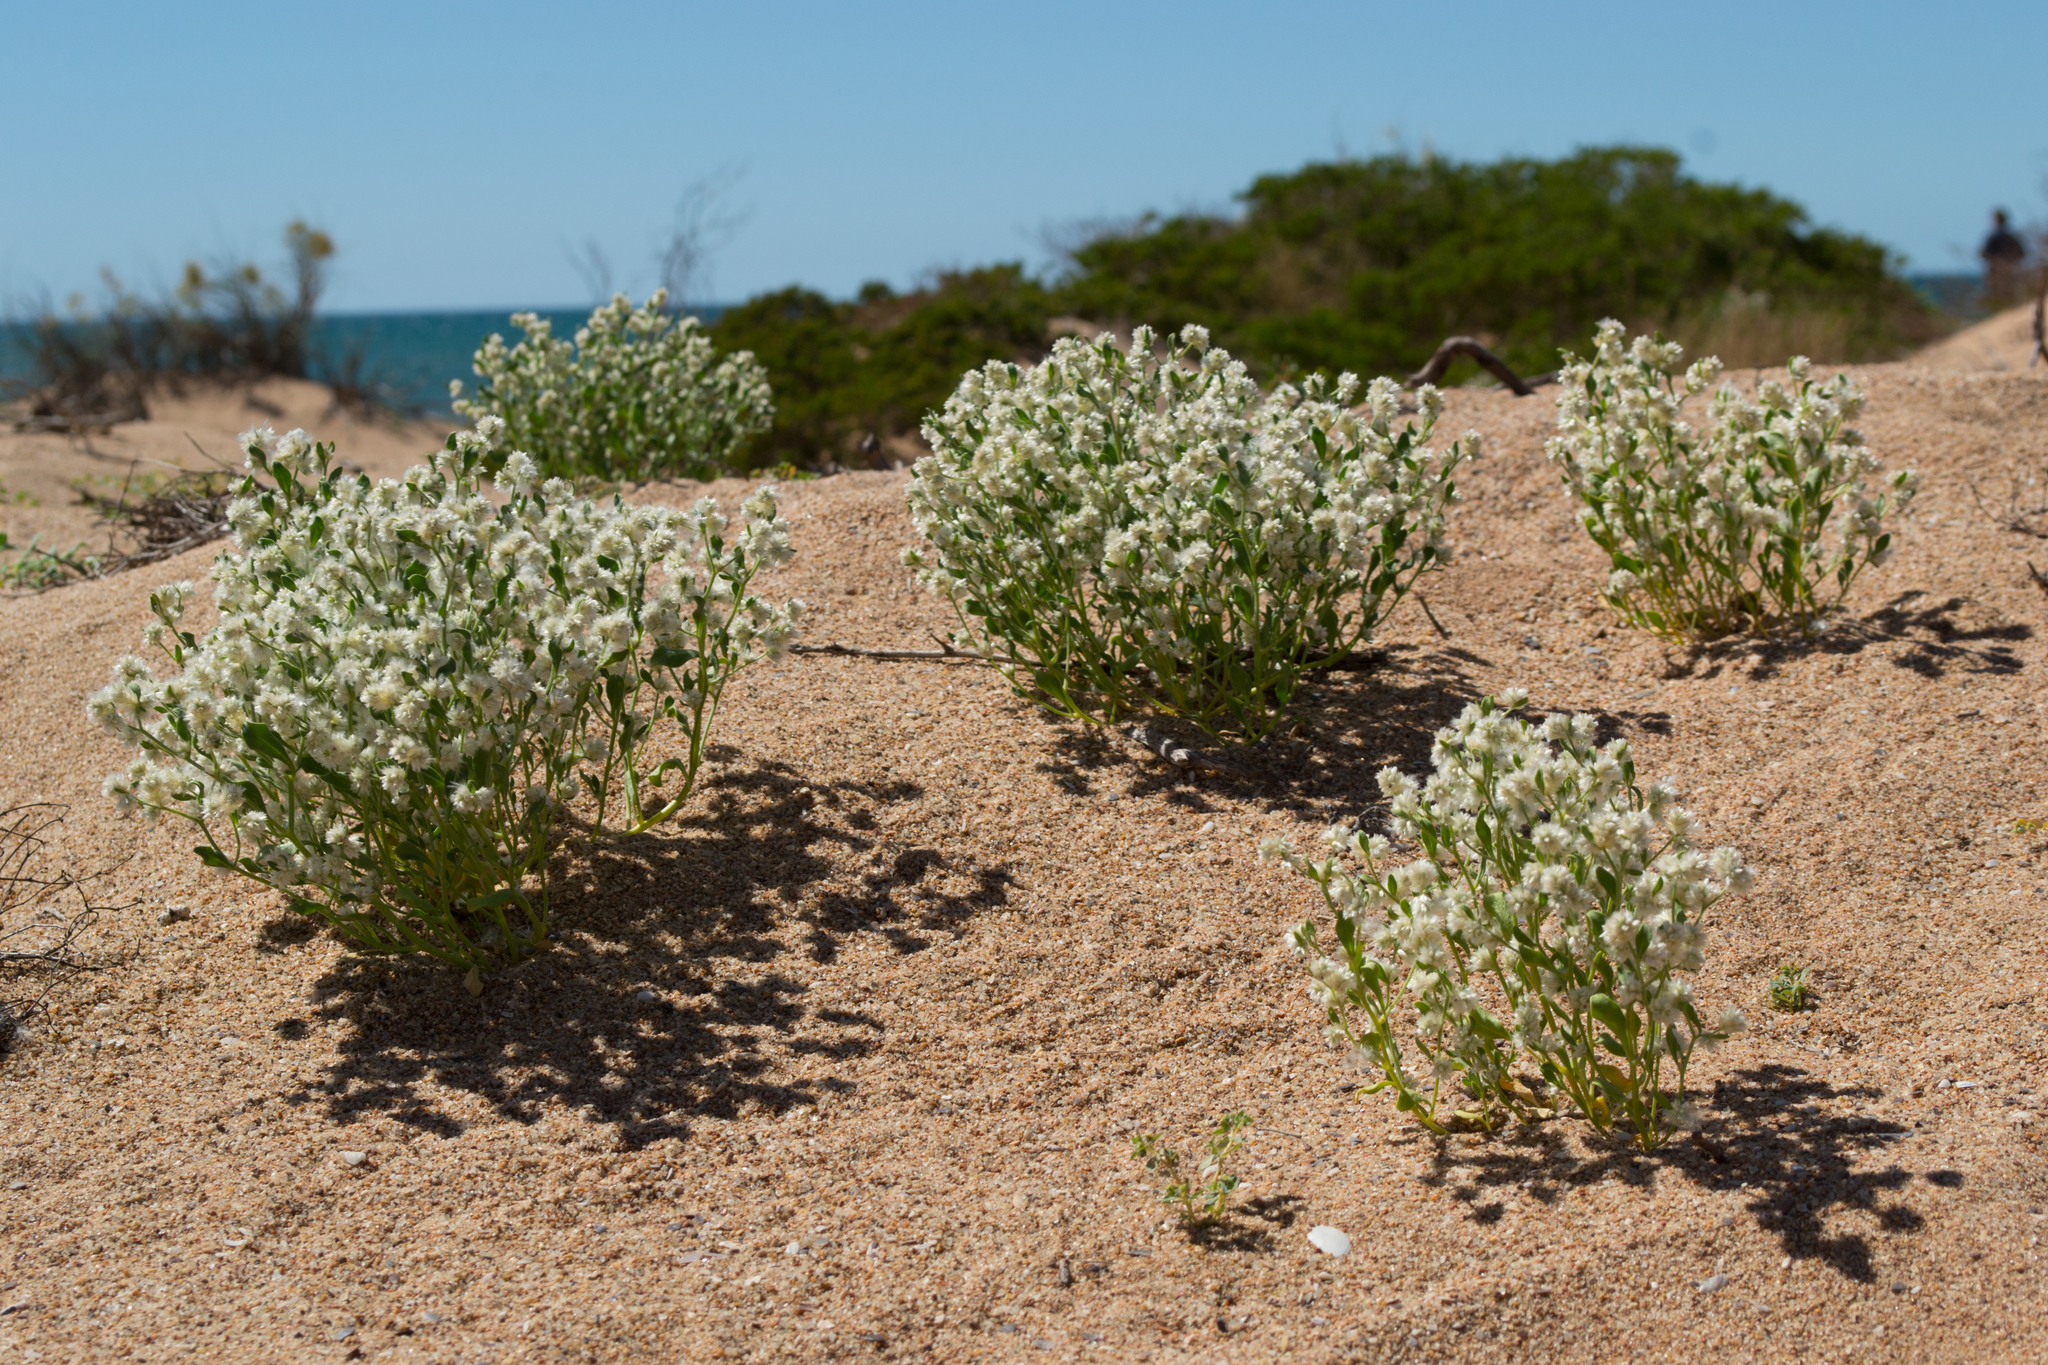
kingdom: Plantae
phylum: Tracheophyta
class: Magnoliopsida
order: Caryophyllales
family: Amaranthaceae
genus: Ptilotus
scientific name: Ptilotus villosiflorus
